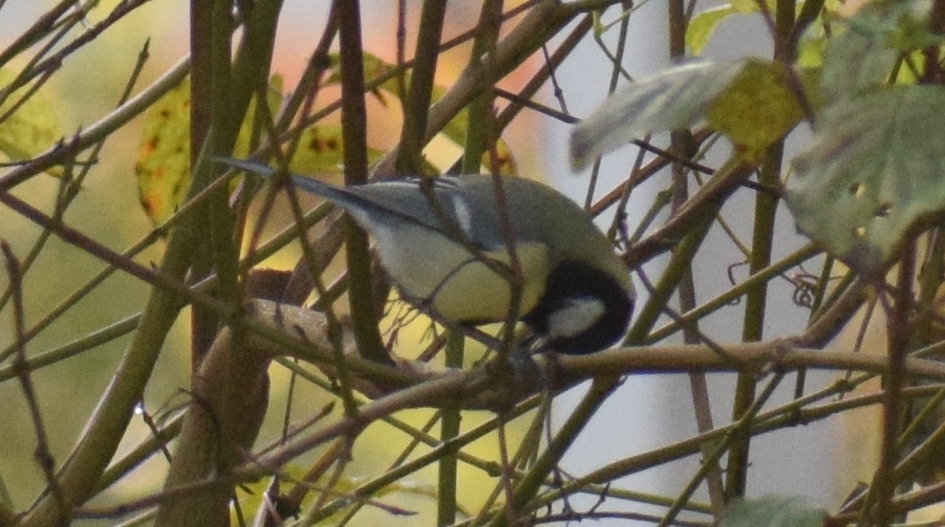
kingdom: Animalia
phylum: Chordata
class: Aves
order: Passeriformes
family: Paridae
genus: Parus
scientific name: Parus major
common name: Great tit
